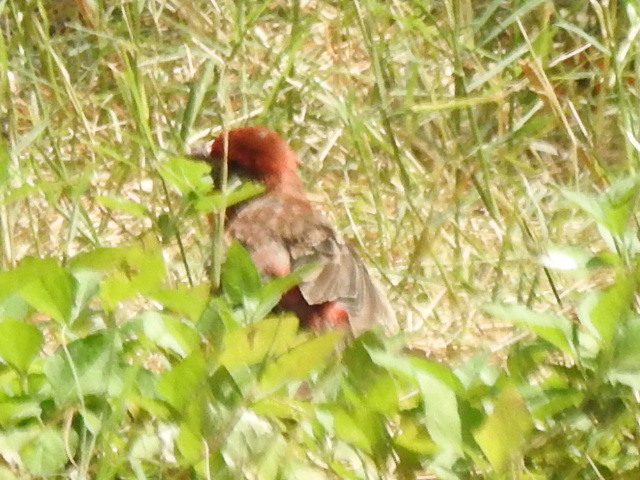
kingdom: Animalia
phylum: Chordata
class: Aves
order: Passeriformes
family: Fringillidae
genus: Haemorhous
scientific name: Haemorhous mexicanus
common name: House finch
